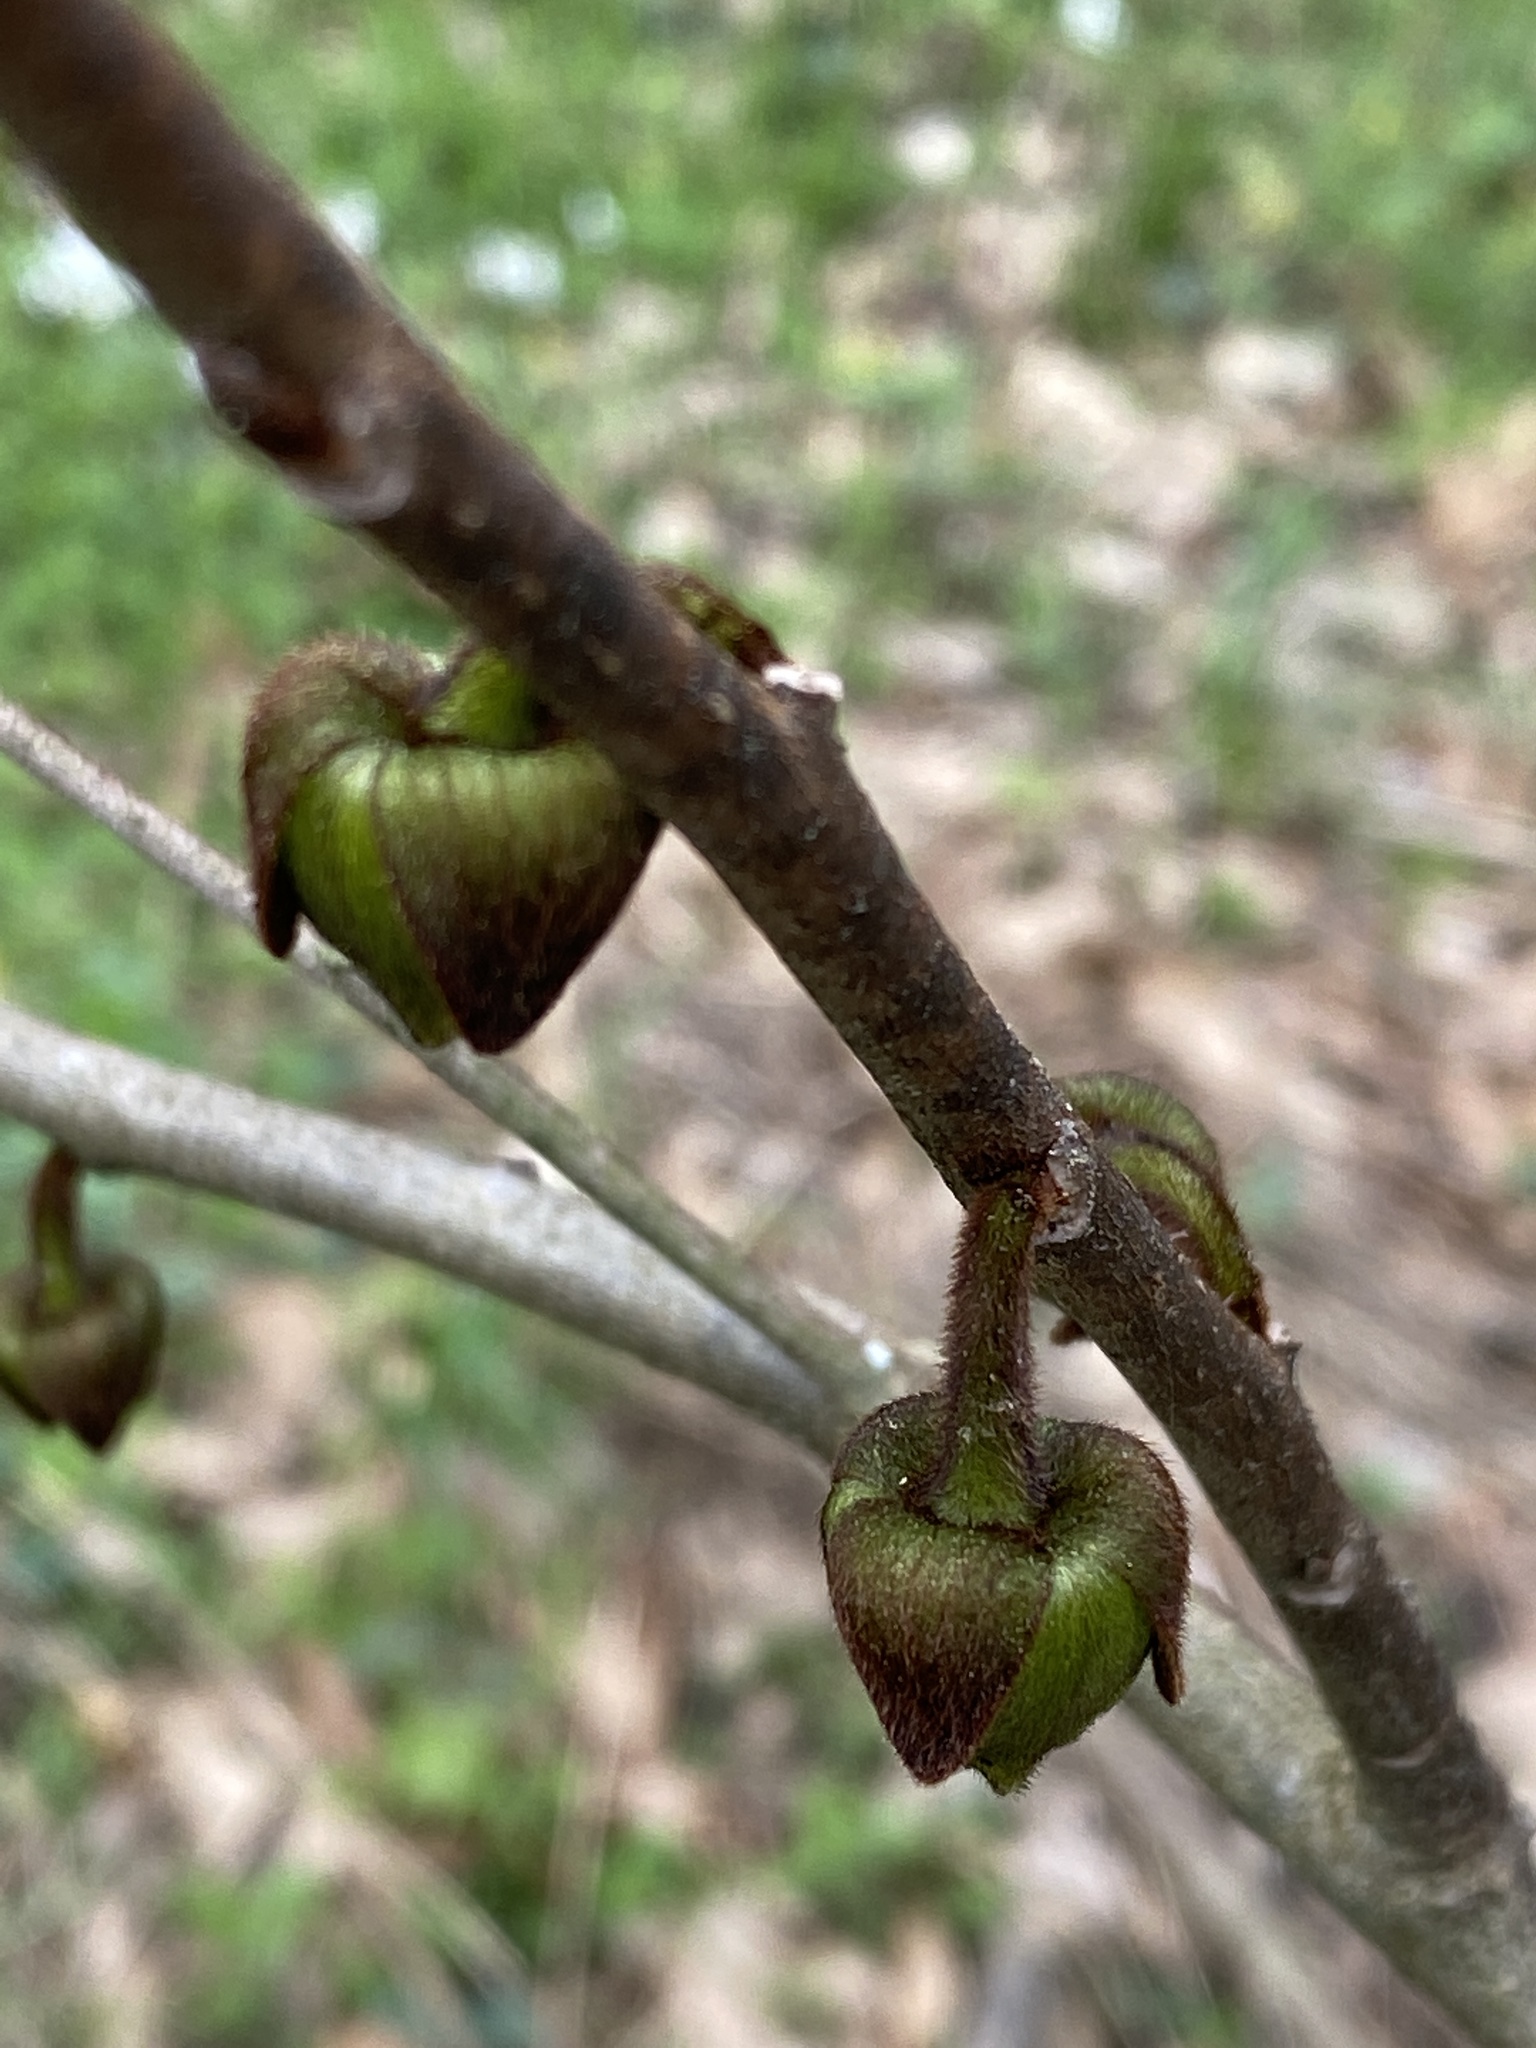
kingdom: Plantae
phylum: Tracheophyta
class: Magnoliopsida
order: Magnoliales
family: Annonaceae
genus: Asimina
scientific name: Asimina triloba
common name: Dog-banana
